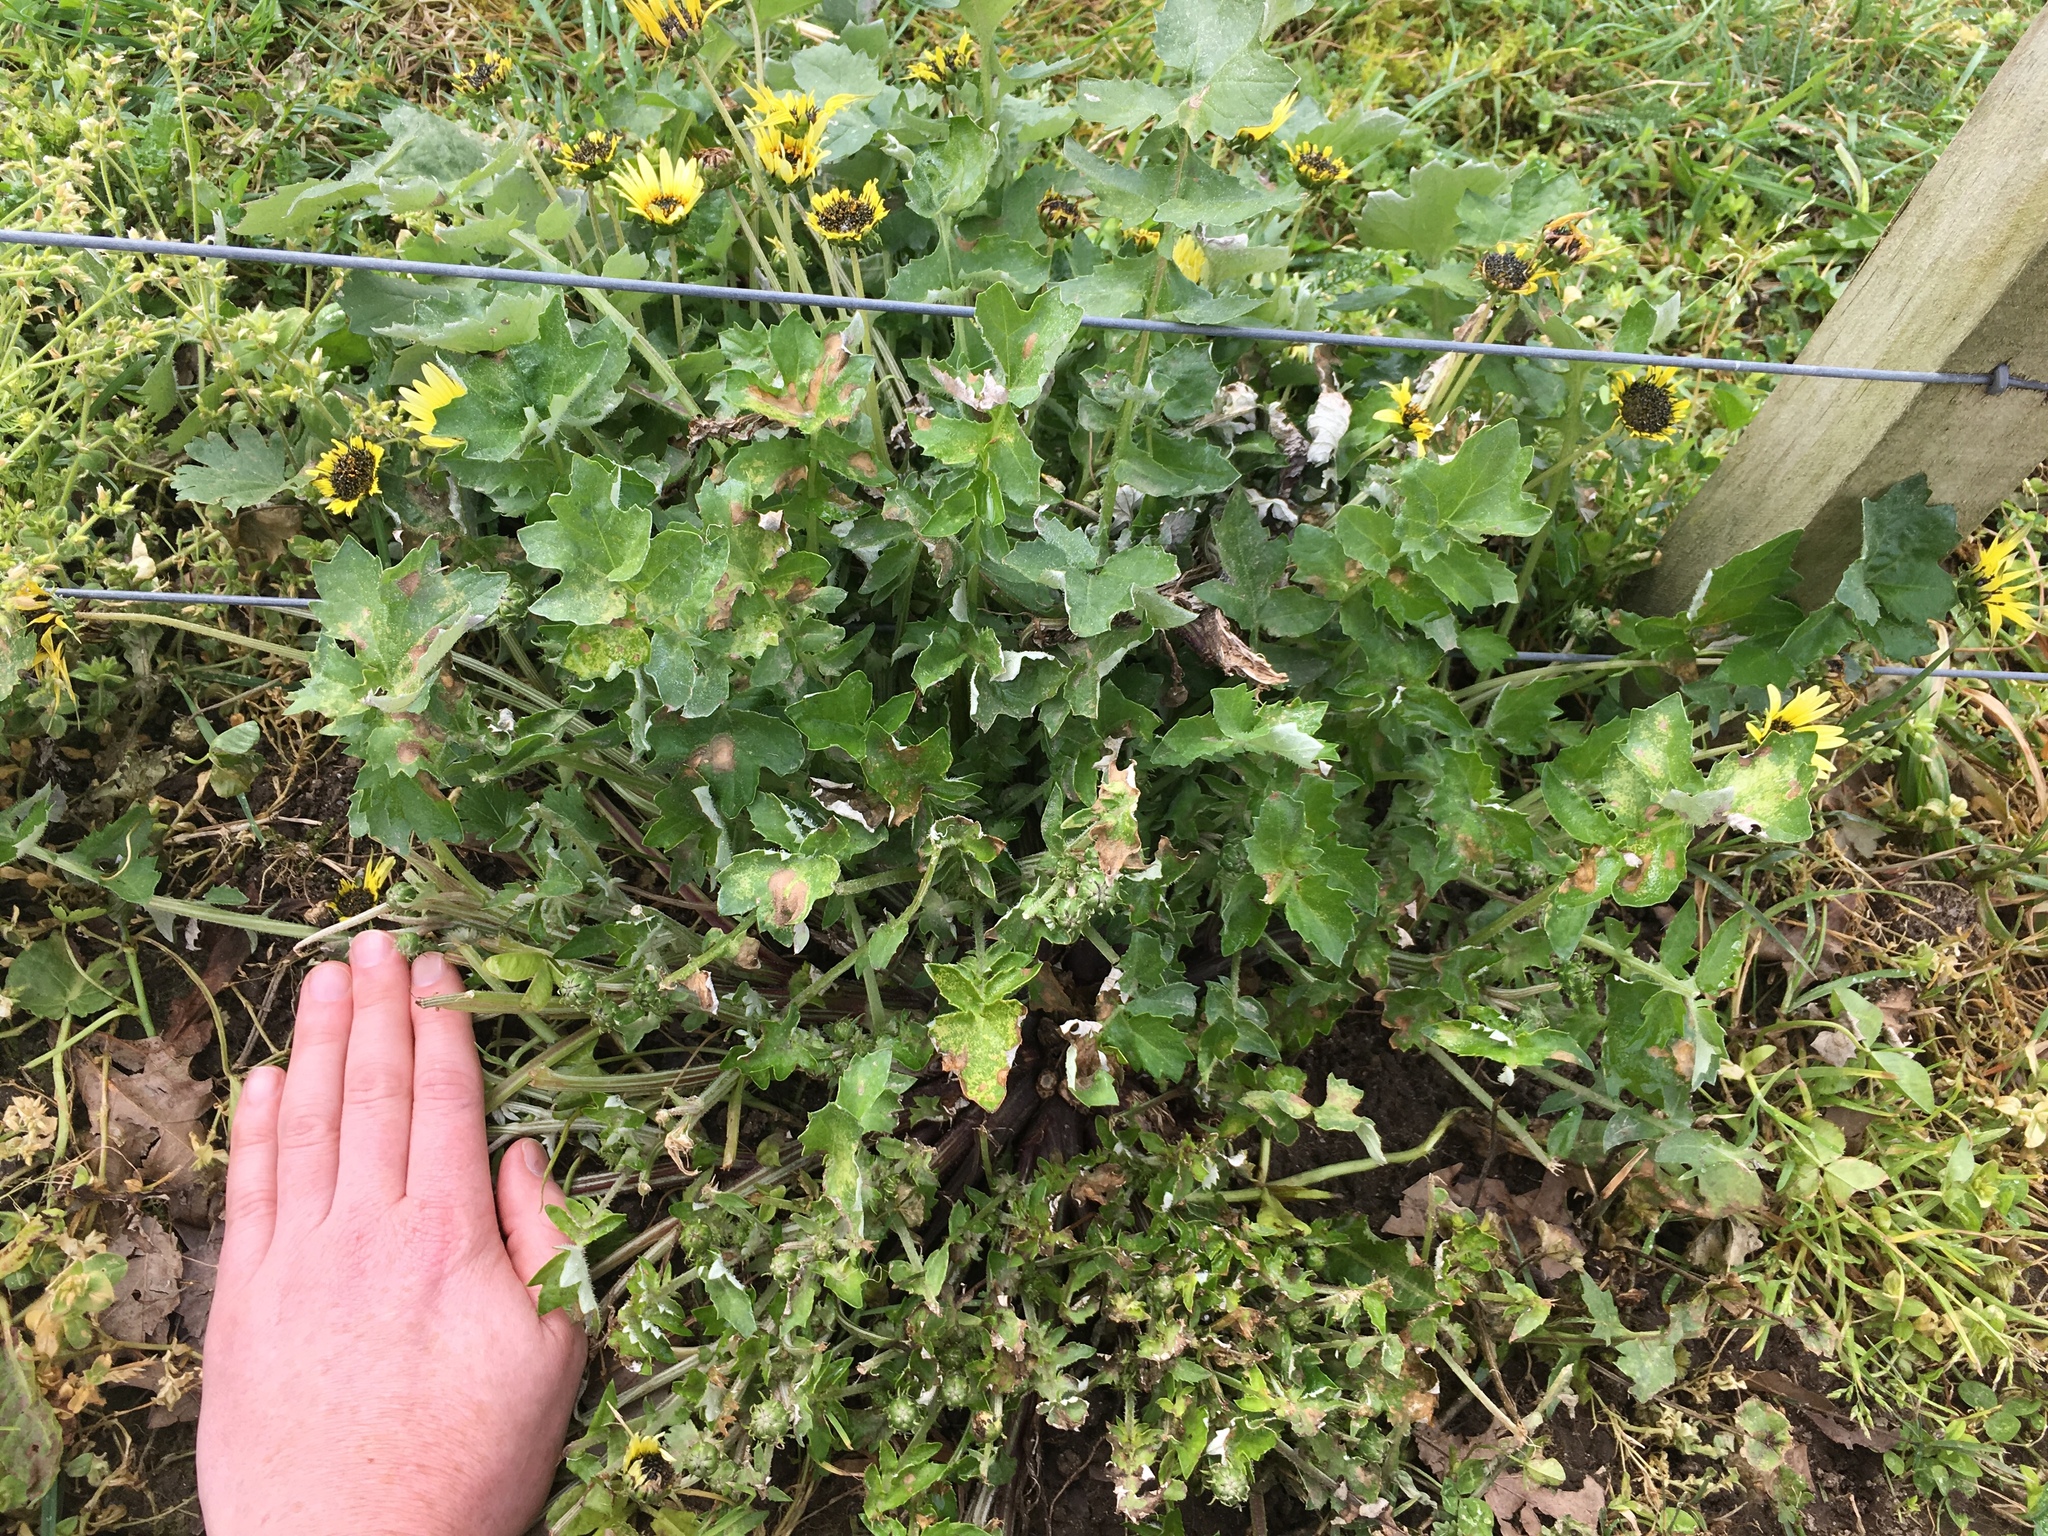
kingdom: Plantae
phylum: Tracheophyta
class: Magnoliopsida
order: Asterales
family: Asteraceae
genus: Arctotheca
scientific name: Arctotheca calendula
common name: Capeweed
